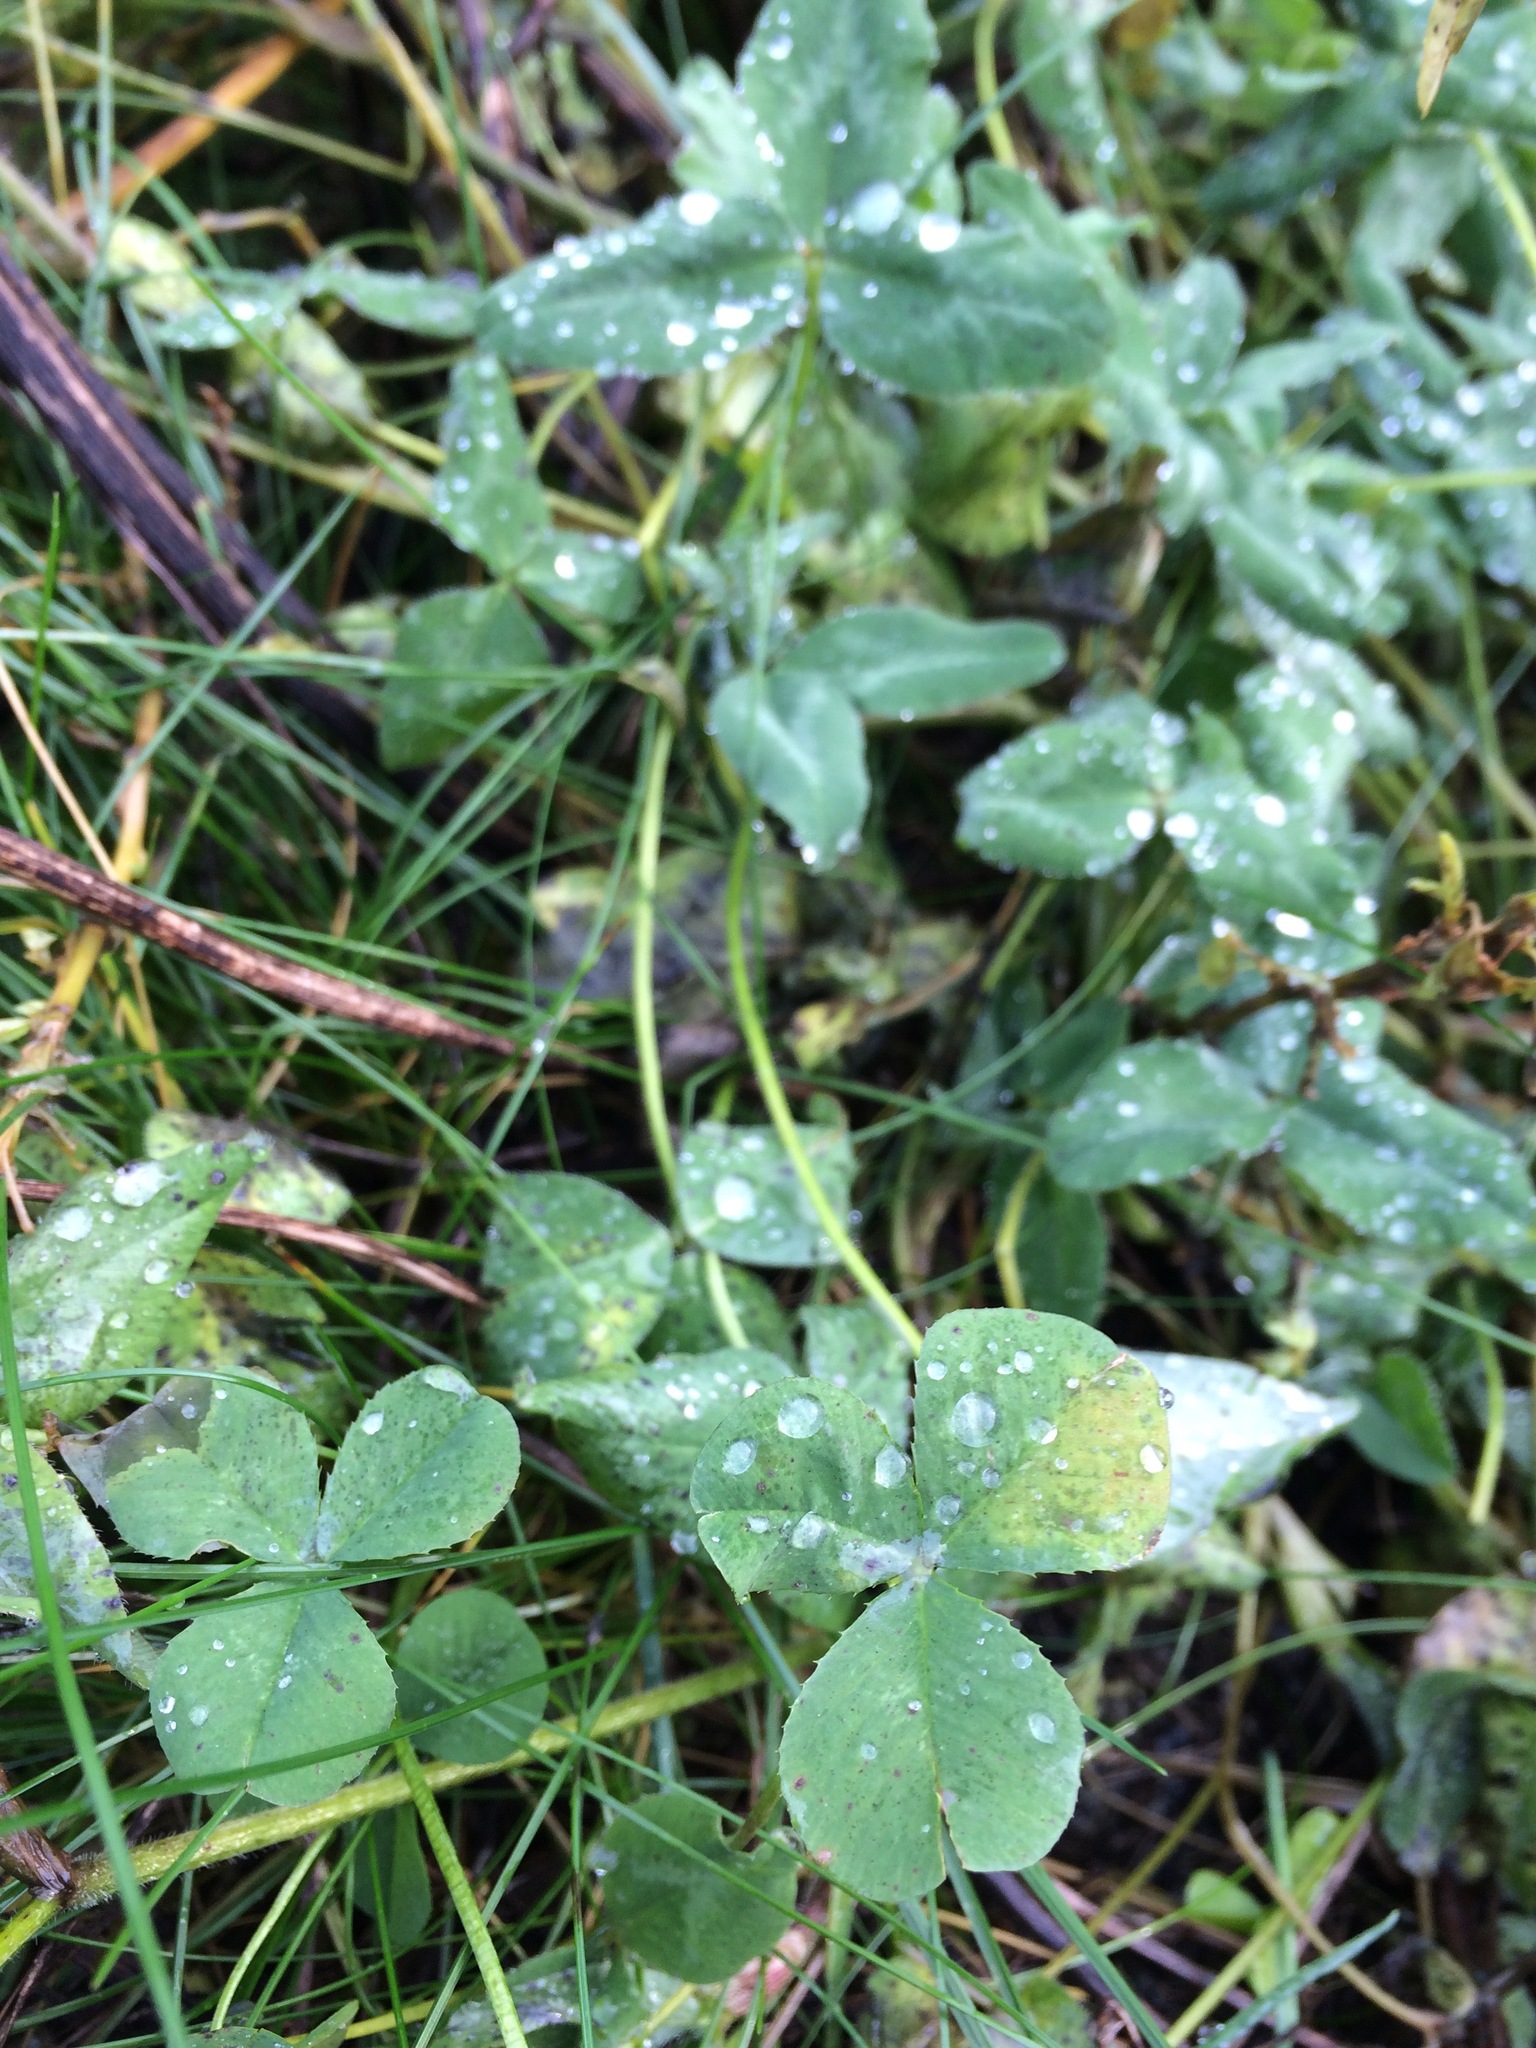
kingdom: Plantae
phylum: Tracheophyta
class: Magnoliopsida
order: Fabales
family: Fabaceae
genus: Trifolium
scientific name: Trifolium pratense
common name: Red clover
